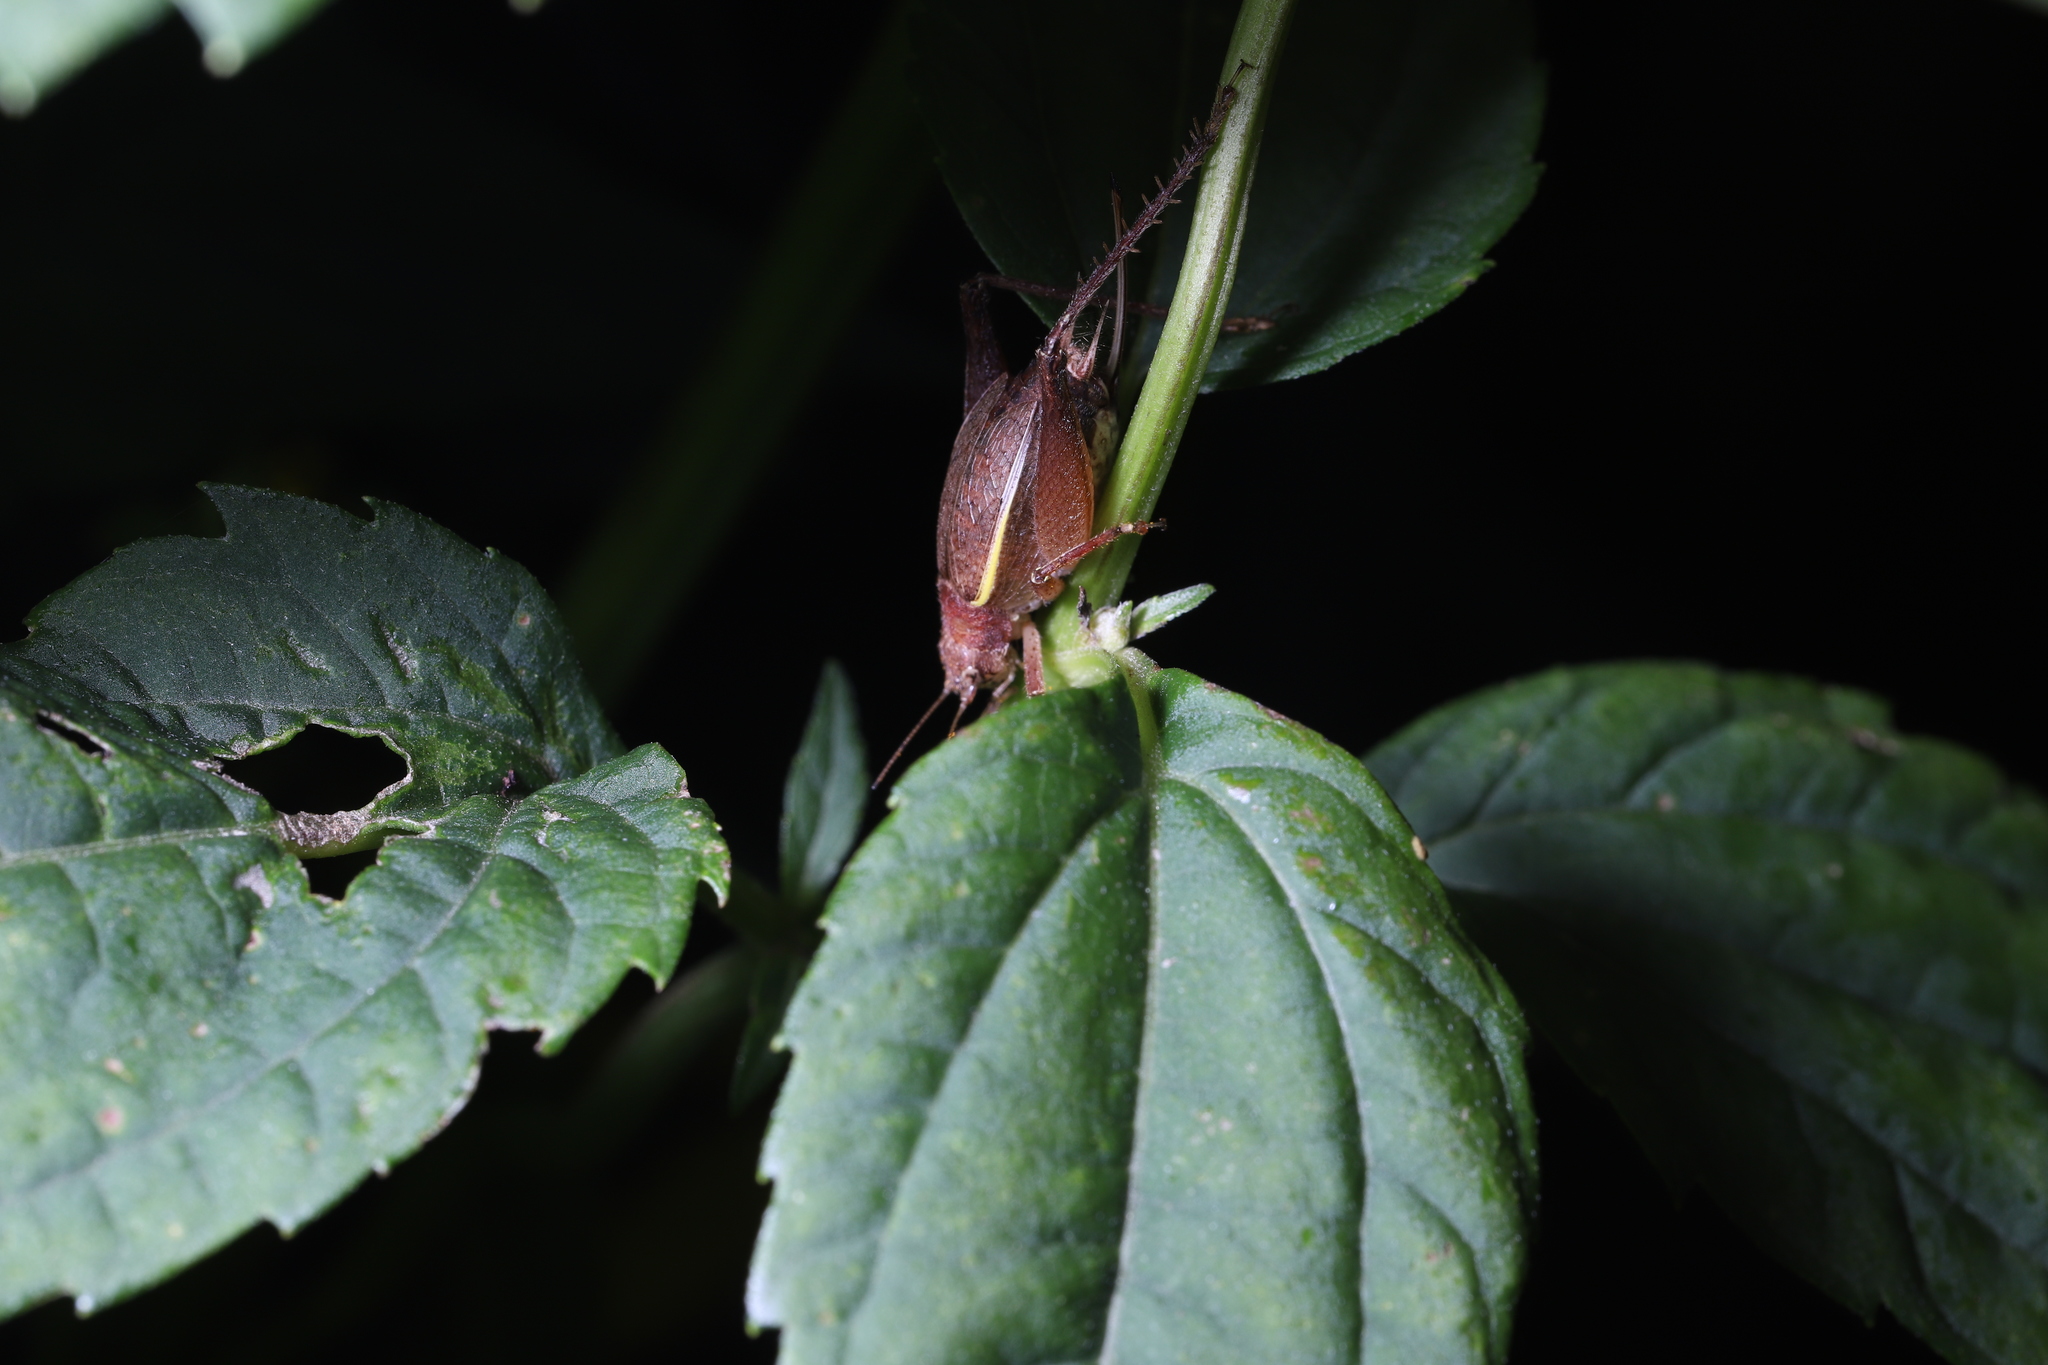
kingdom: Animalia
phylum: Arthropoda
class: Insecta
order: Orthoptera
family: Gryllidae
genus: Hapithus
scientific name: Hapithus agitator
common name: Restless bush cricket
